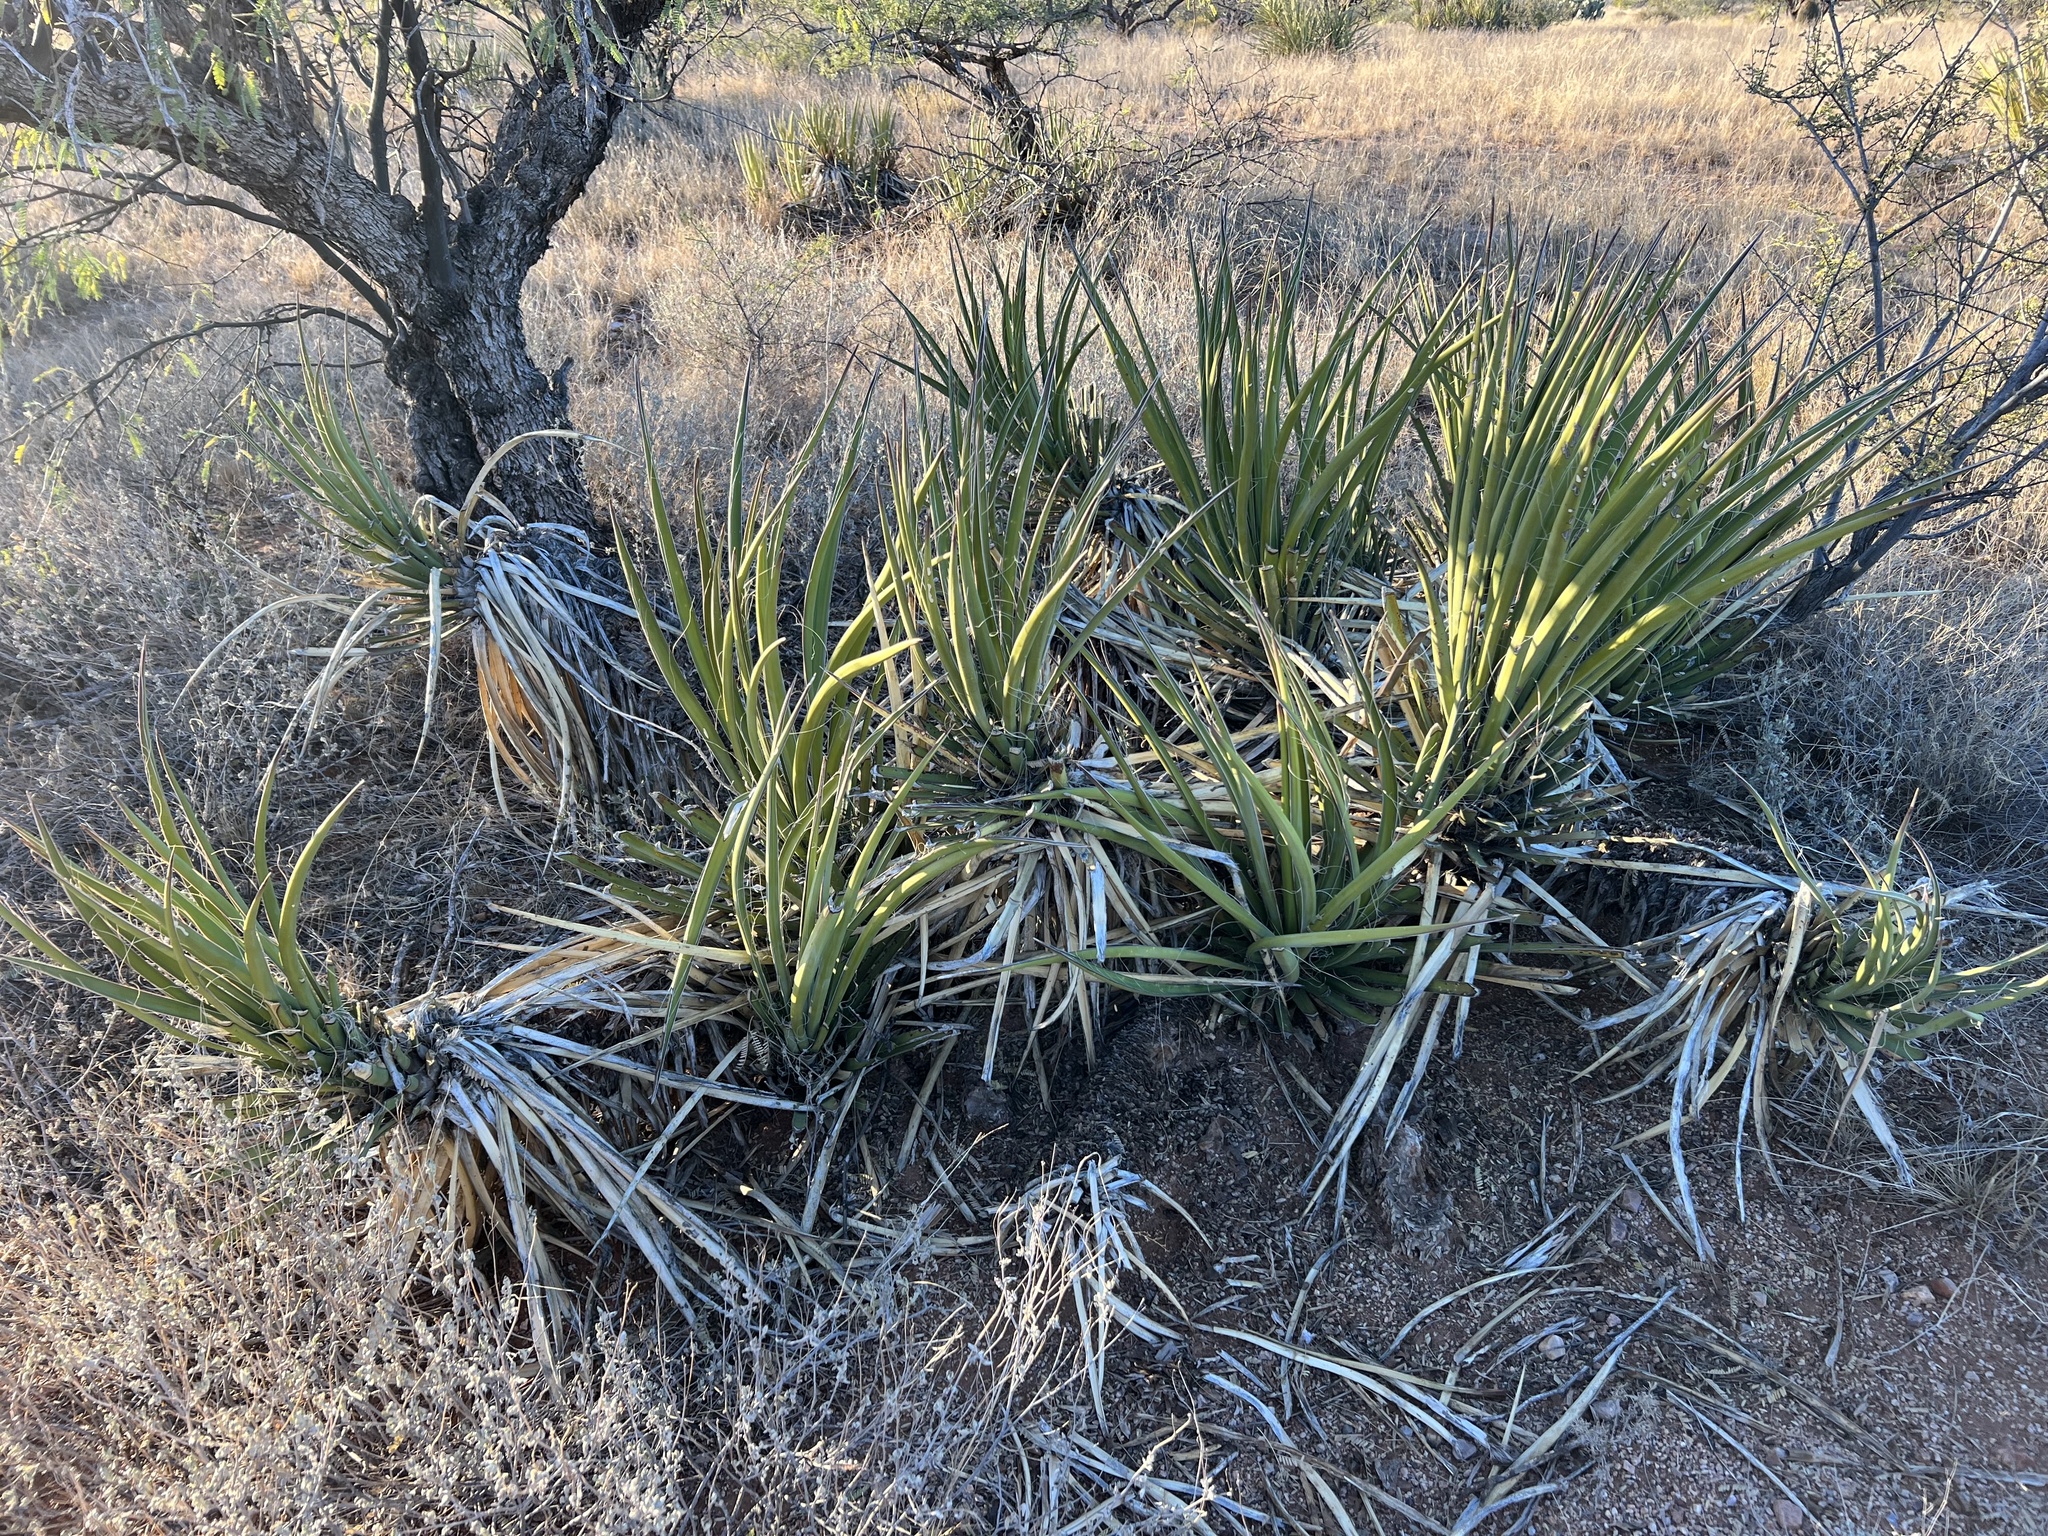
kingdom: Plantae
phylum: Tracheophyta
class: Liliopsida
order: Asparagales
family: Asparagaceae
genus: Yucca
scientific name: Yucca baccata
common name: Banana yucca
